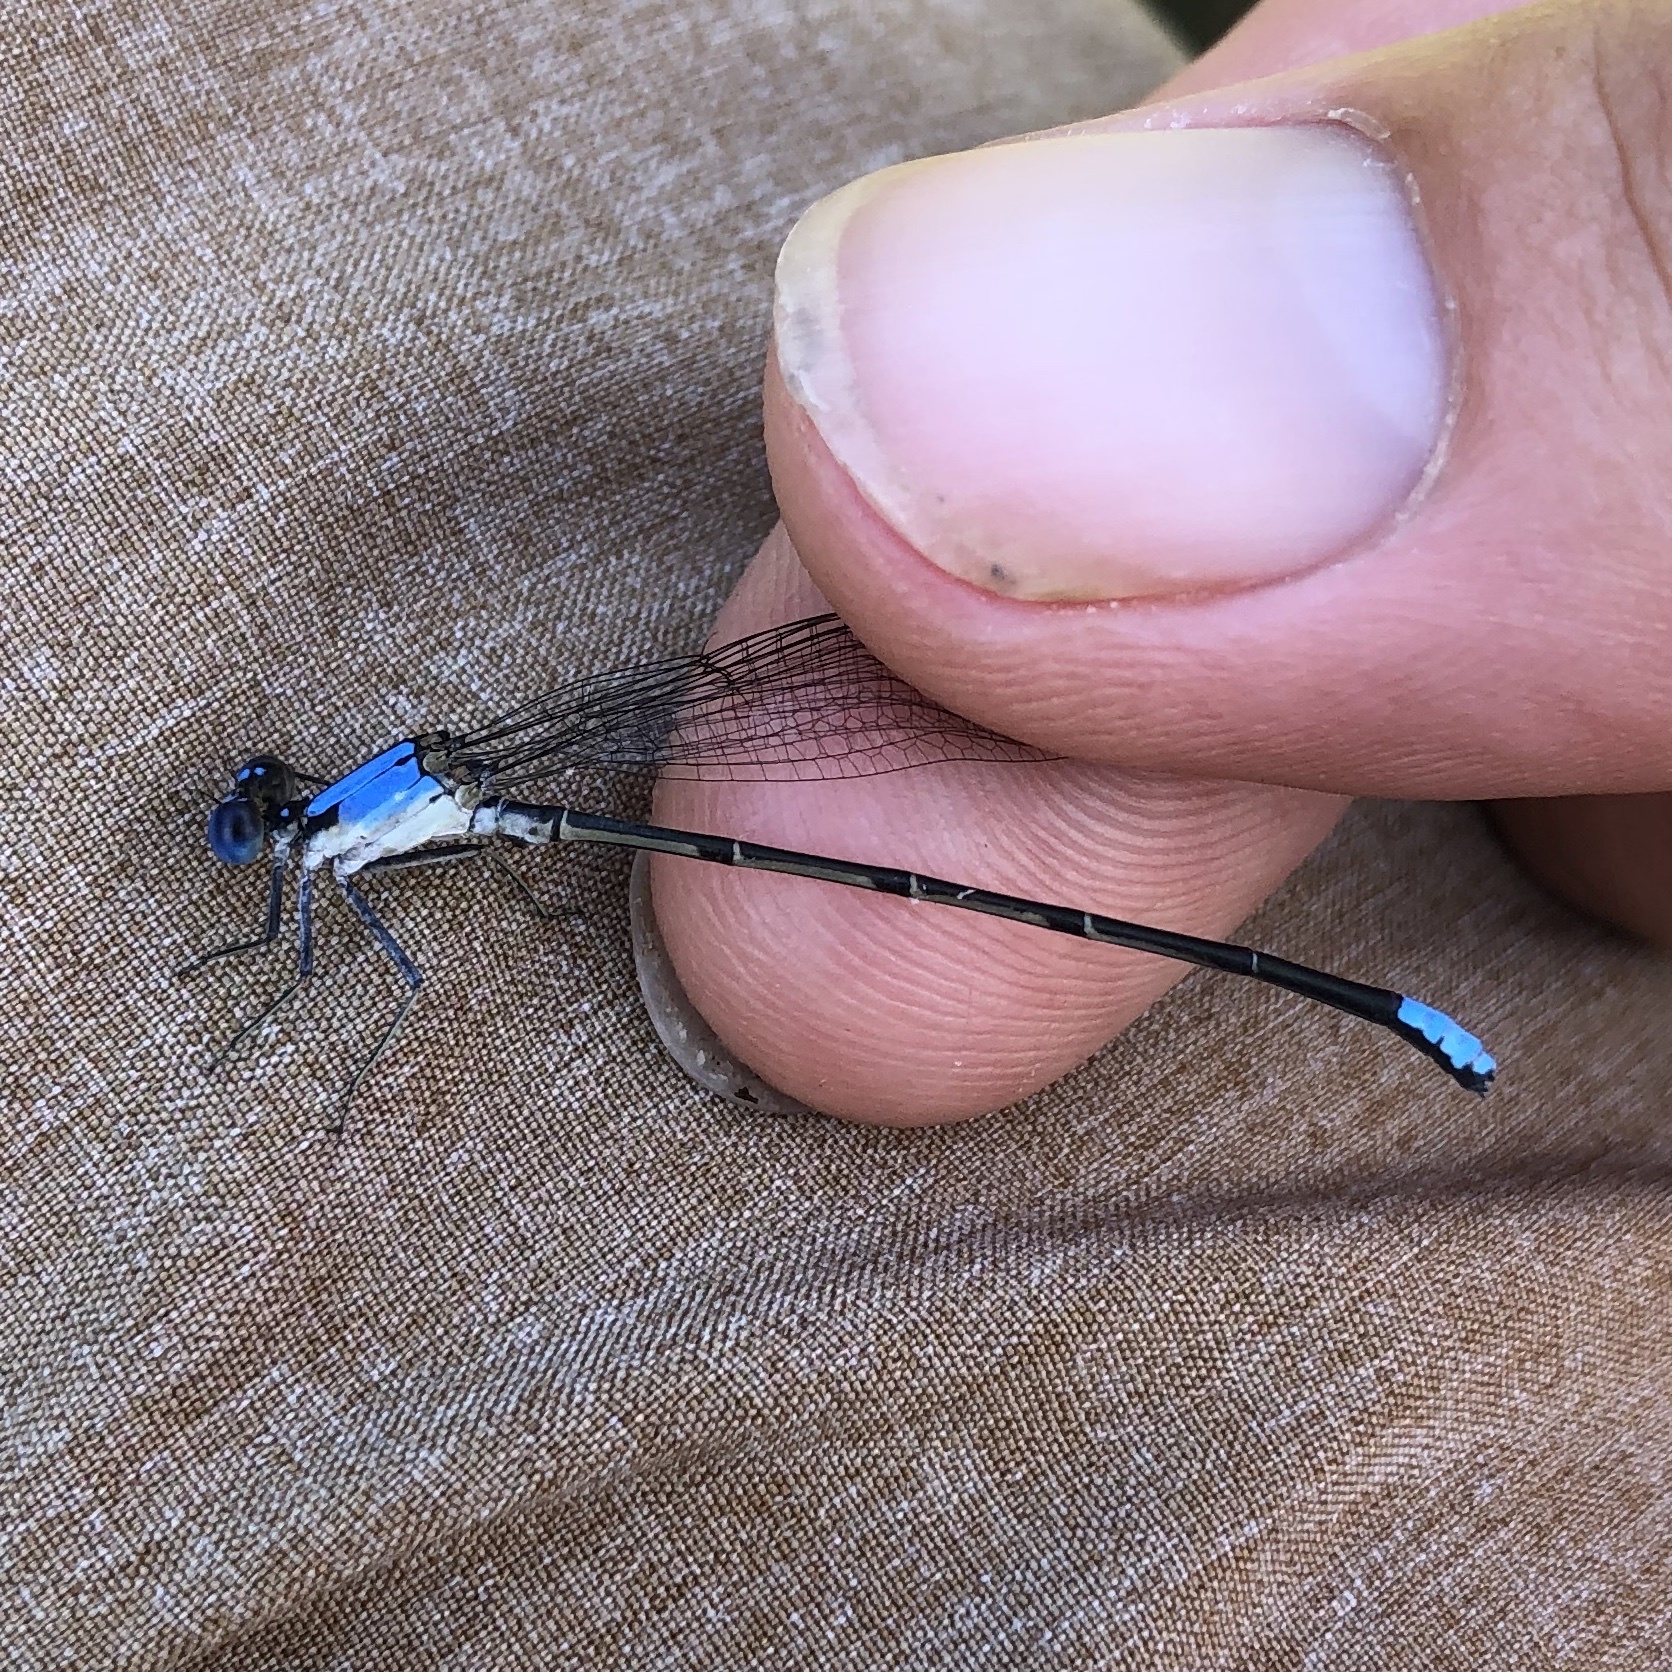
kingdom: Animalia
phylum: Arthropoda
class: Insecta
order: Odonata
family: Coenagrionidae
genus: Argia
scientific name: Argia apicalis
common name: Blue-fronted dancer
